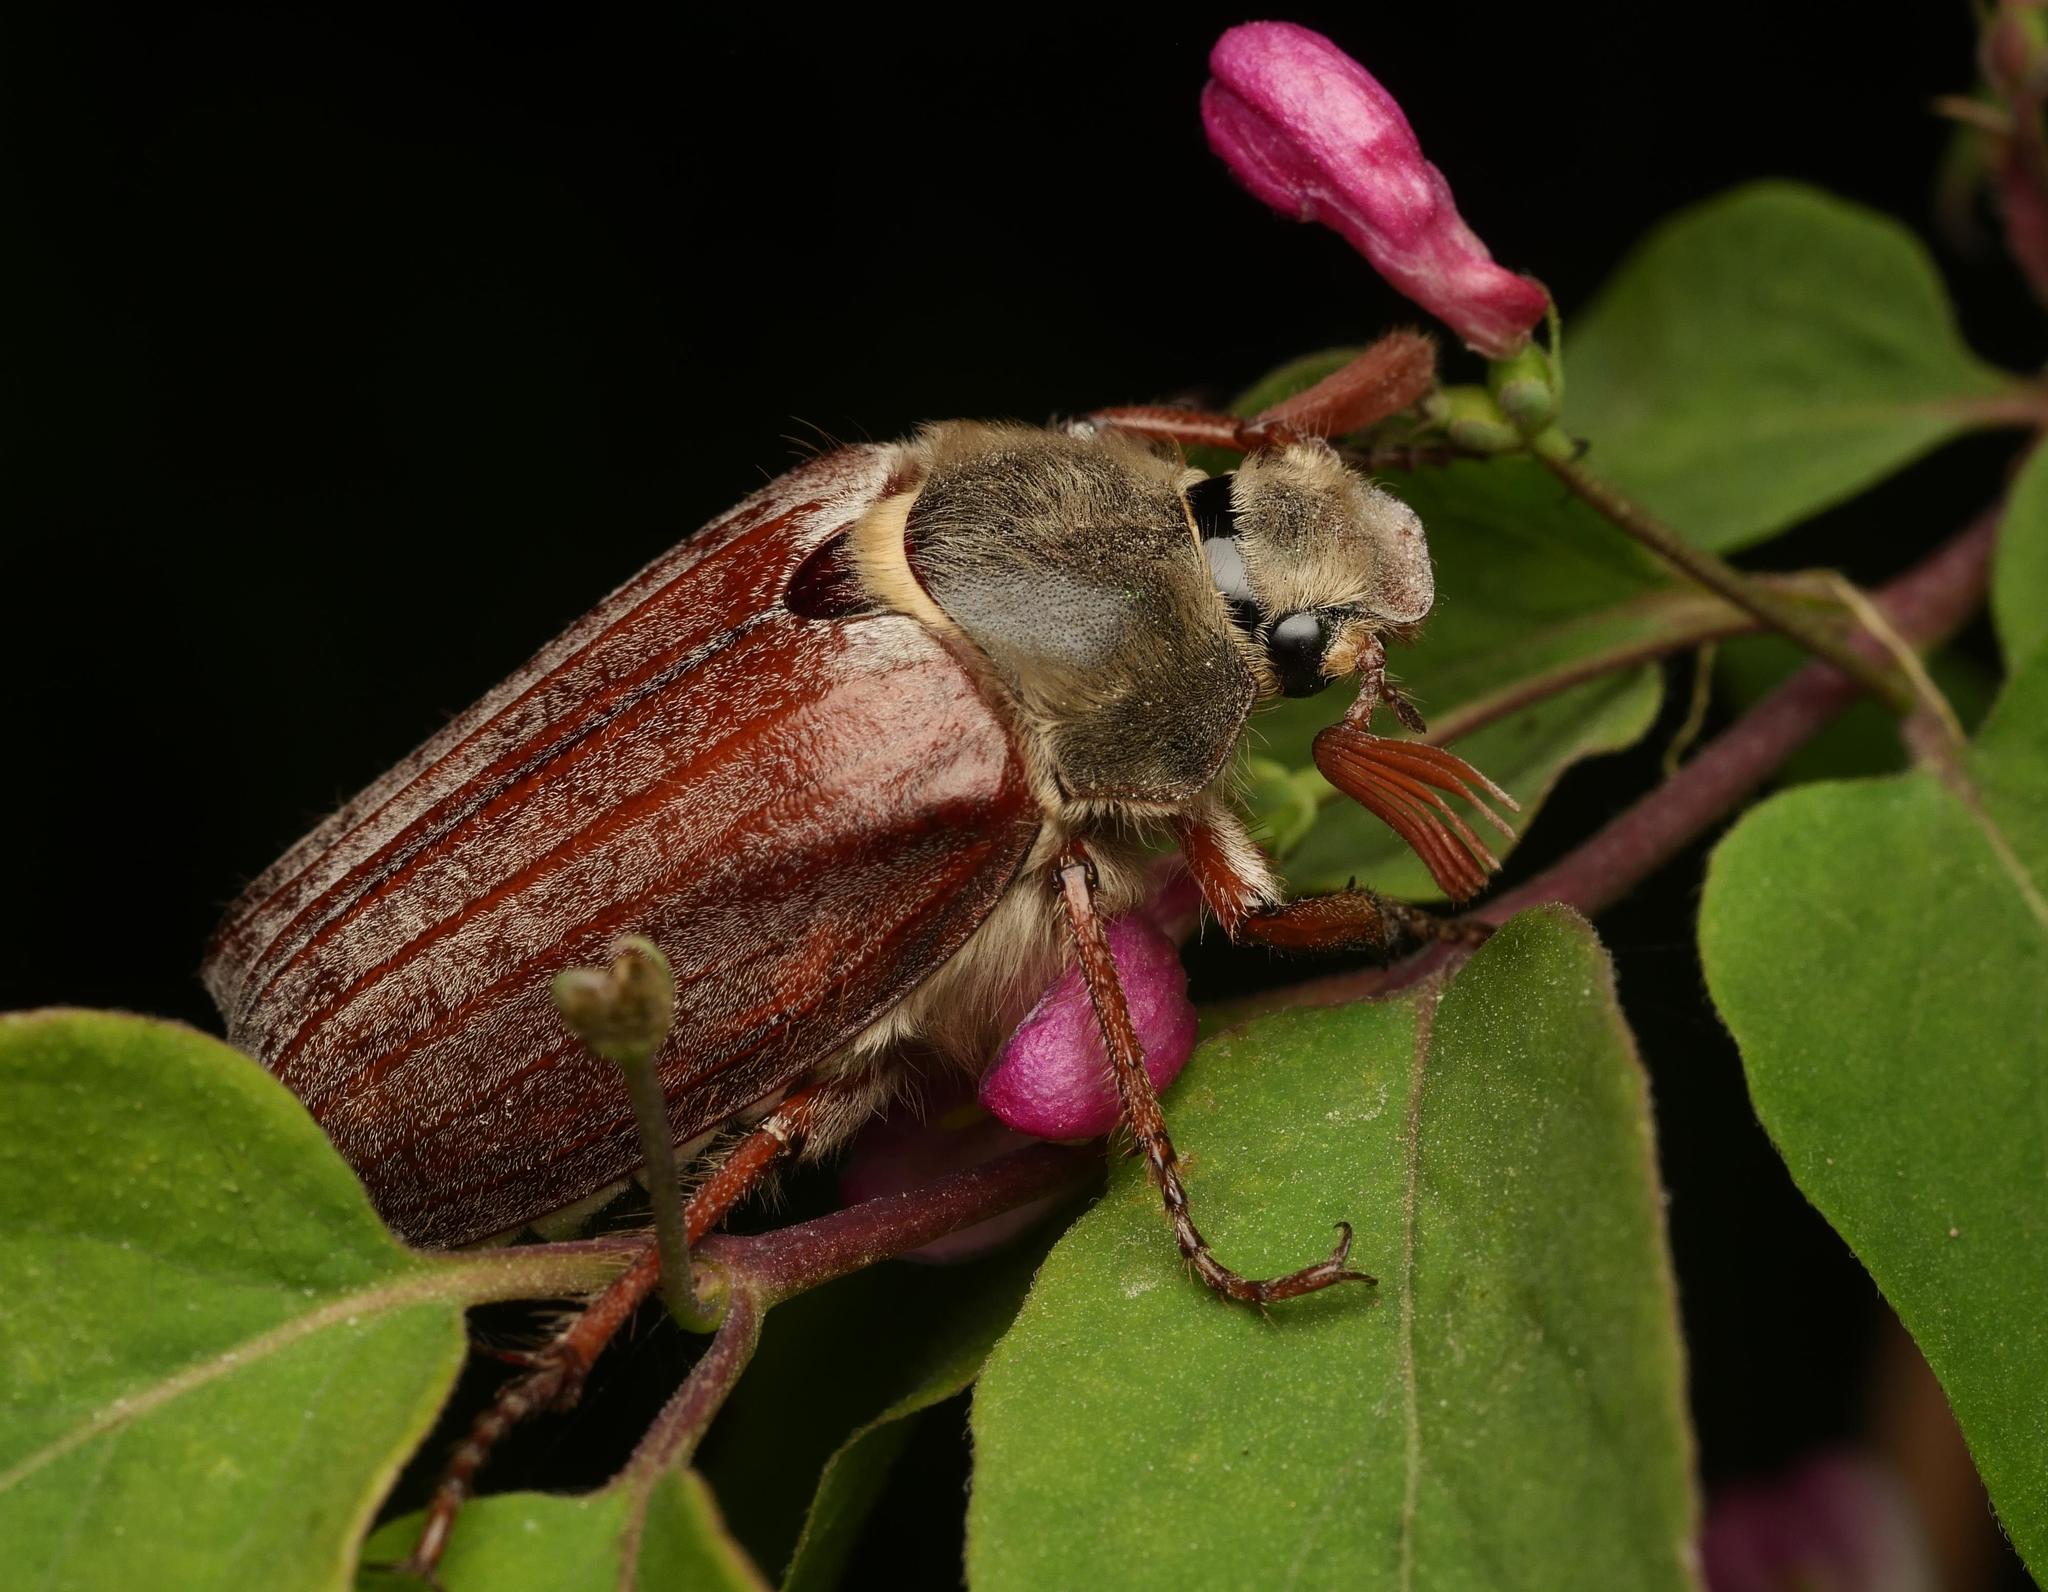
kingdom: Animalia
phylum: Arthropoda
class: Insecta
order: Coleoptera
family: Scarabaeidae
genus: Melolontha
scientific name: Melolontha melolontha
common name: Cockchafer maybeetle
